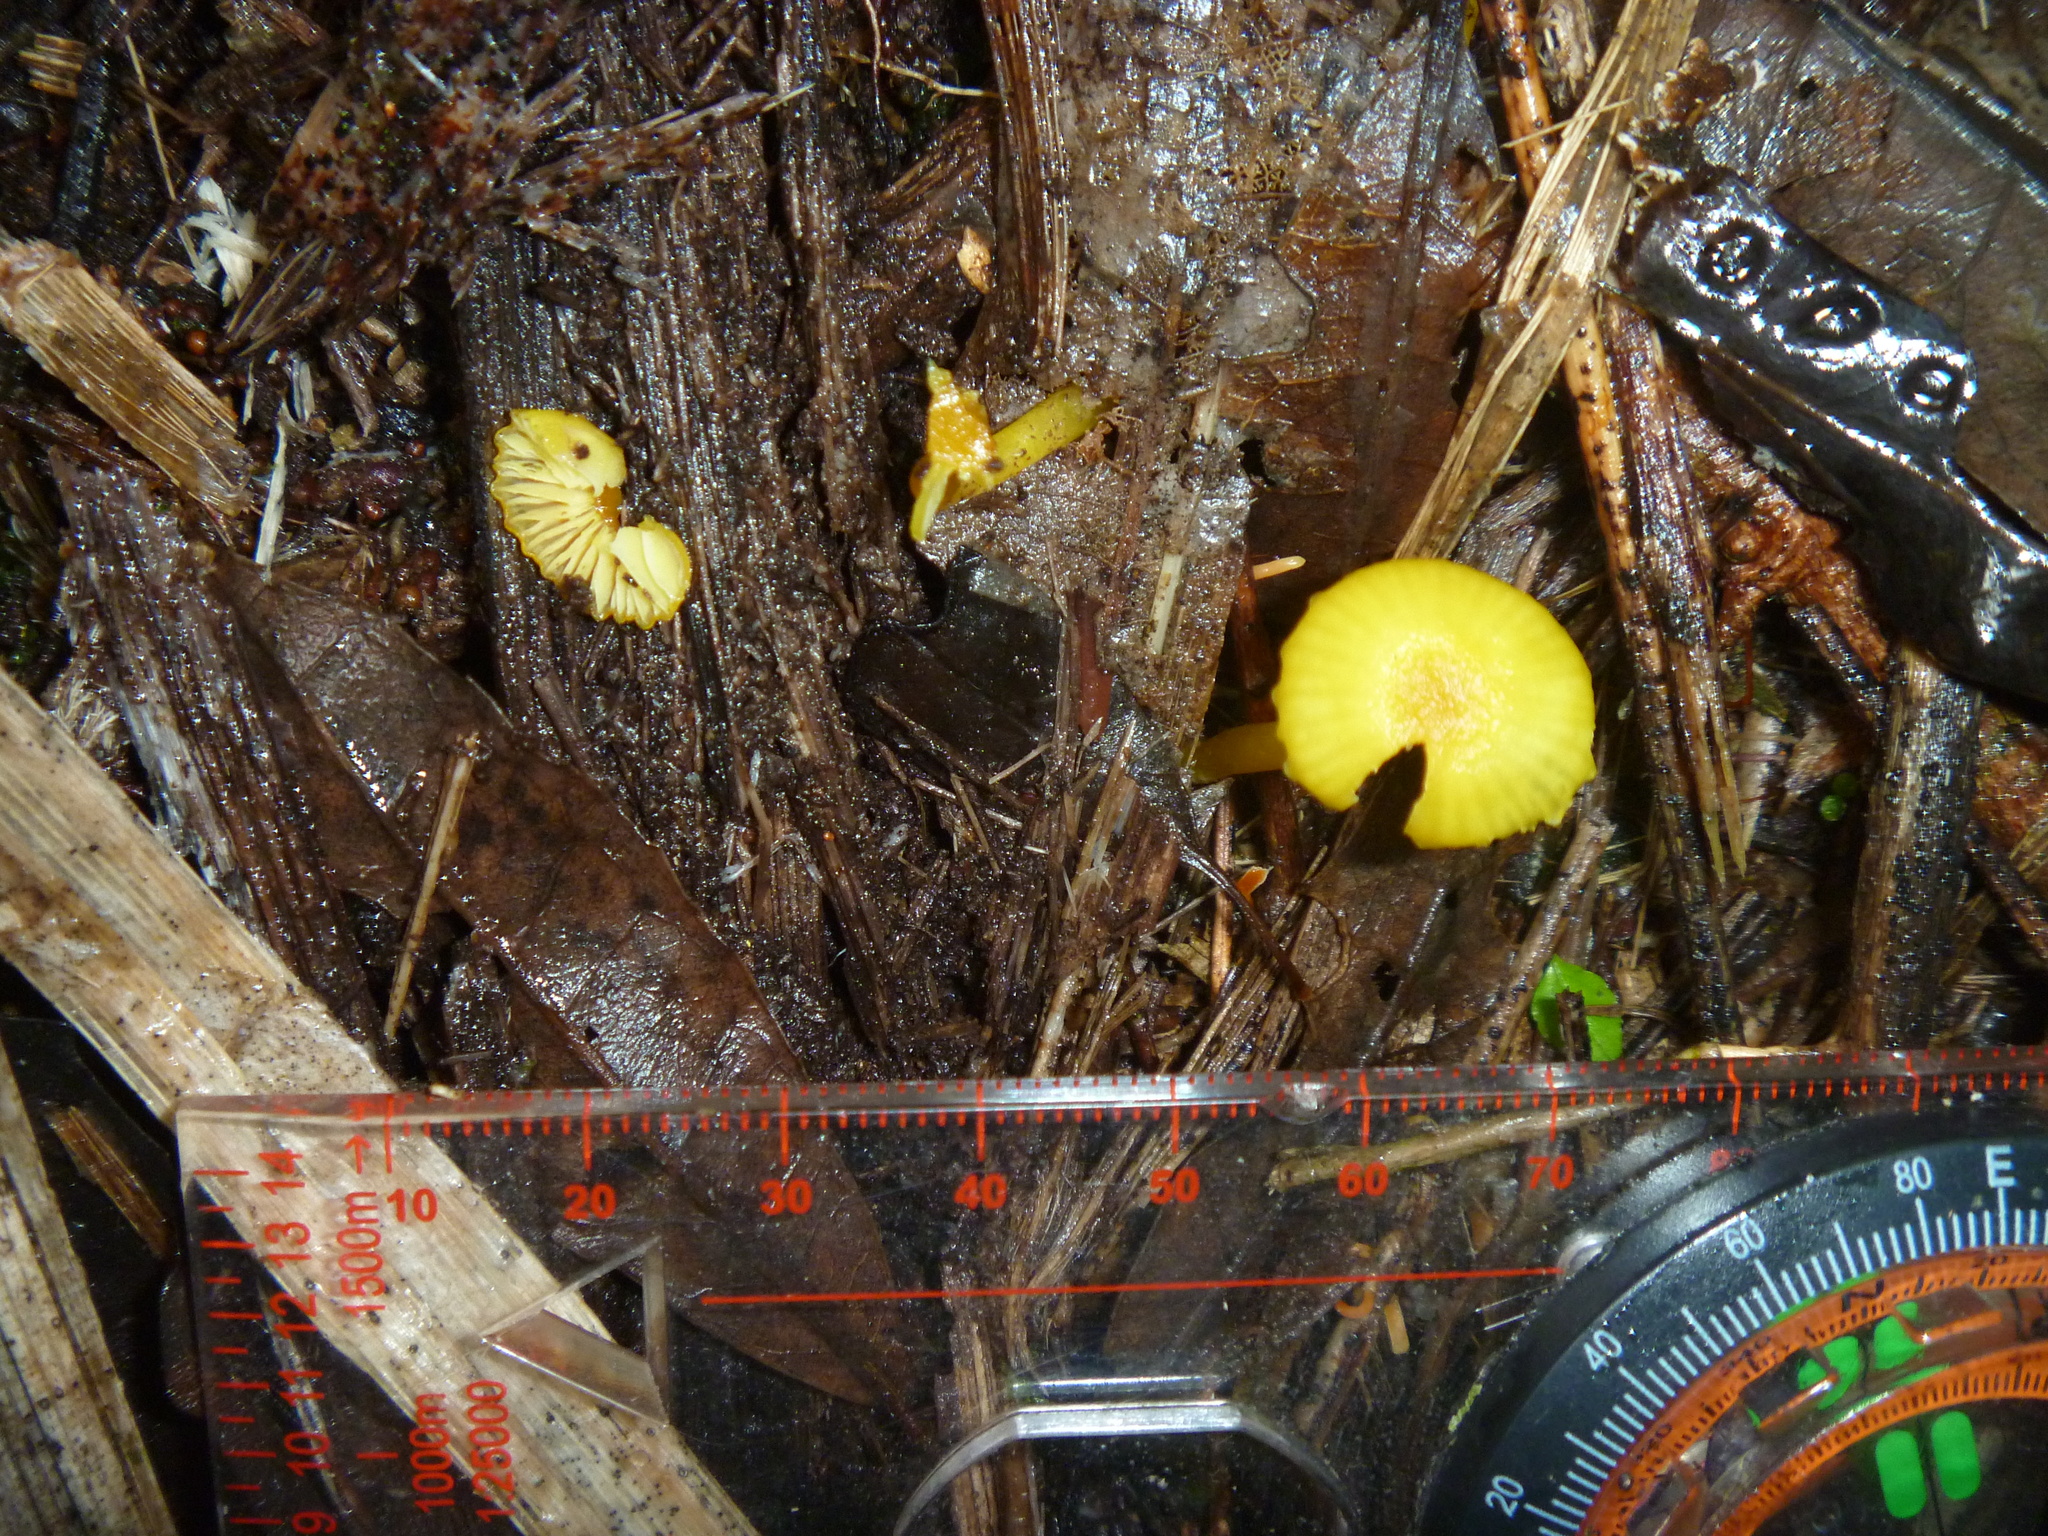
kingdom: Fungi
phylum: Basidiomycota
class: Agaricomycetes
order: Agaricales
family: Hygrophoraceae
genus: Gloioxanthomyces
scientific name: Gloioxanthomyces
